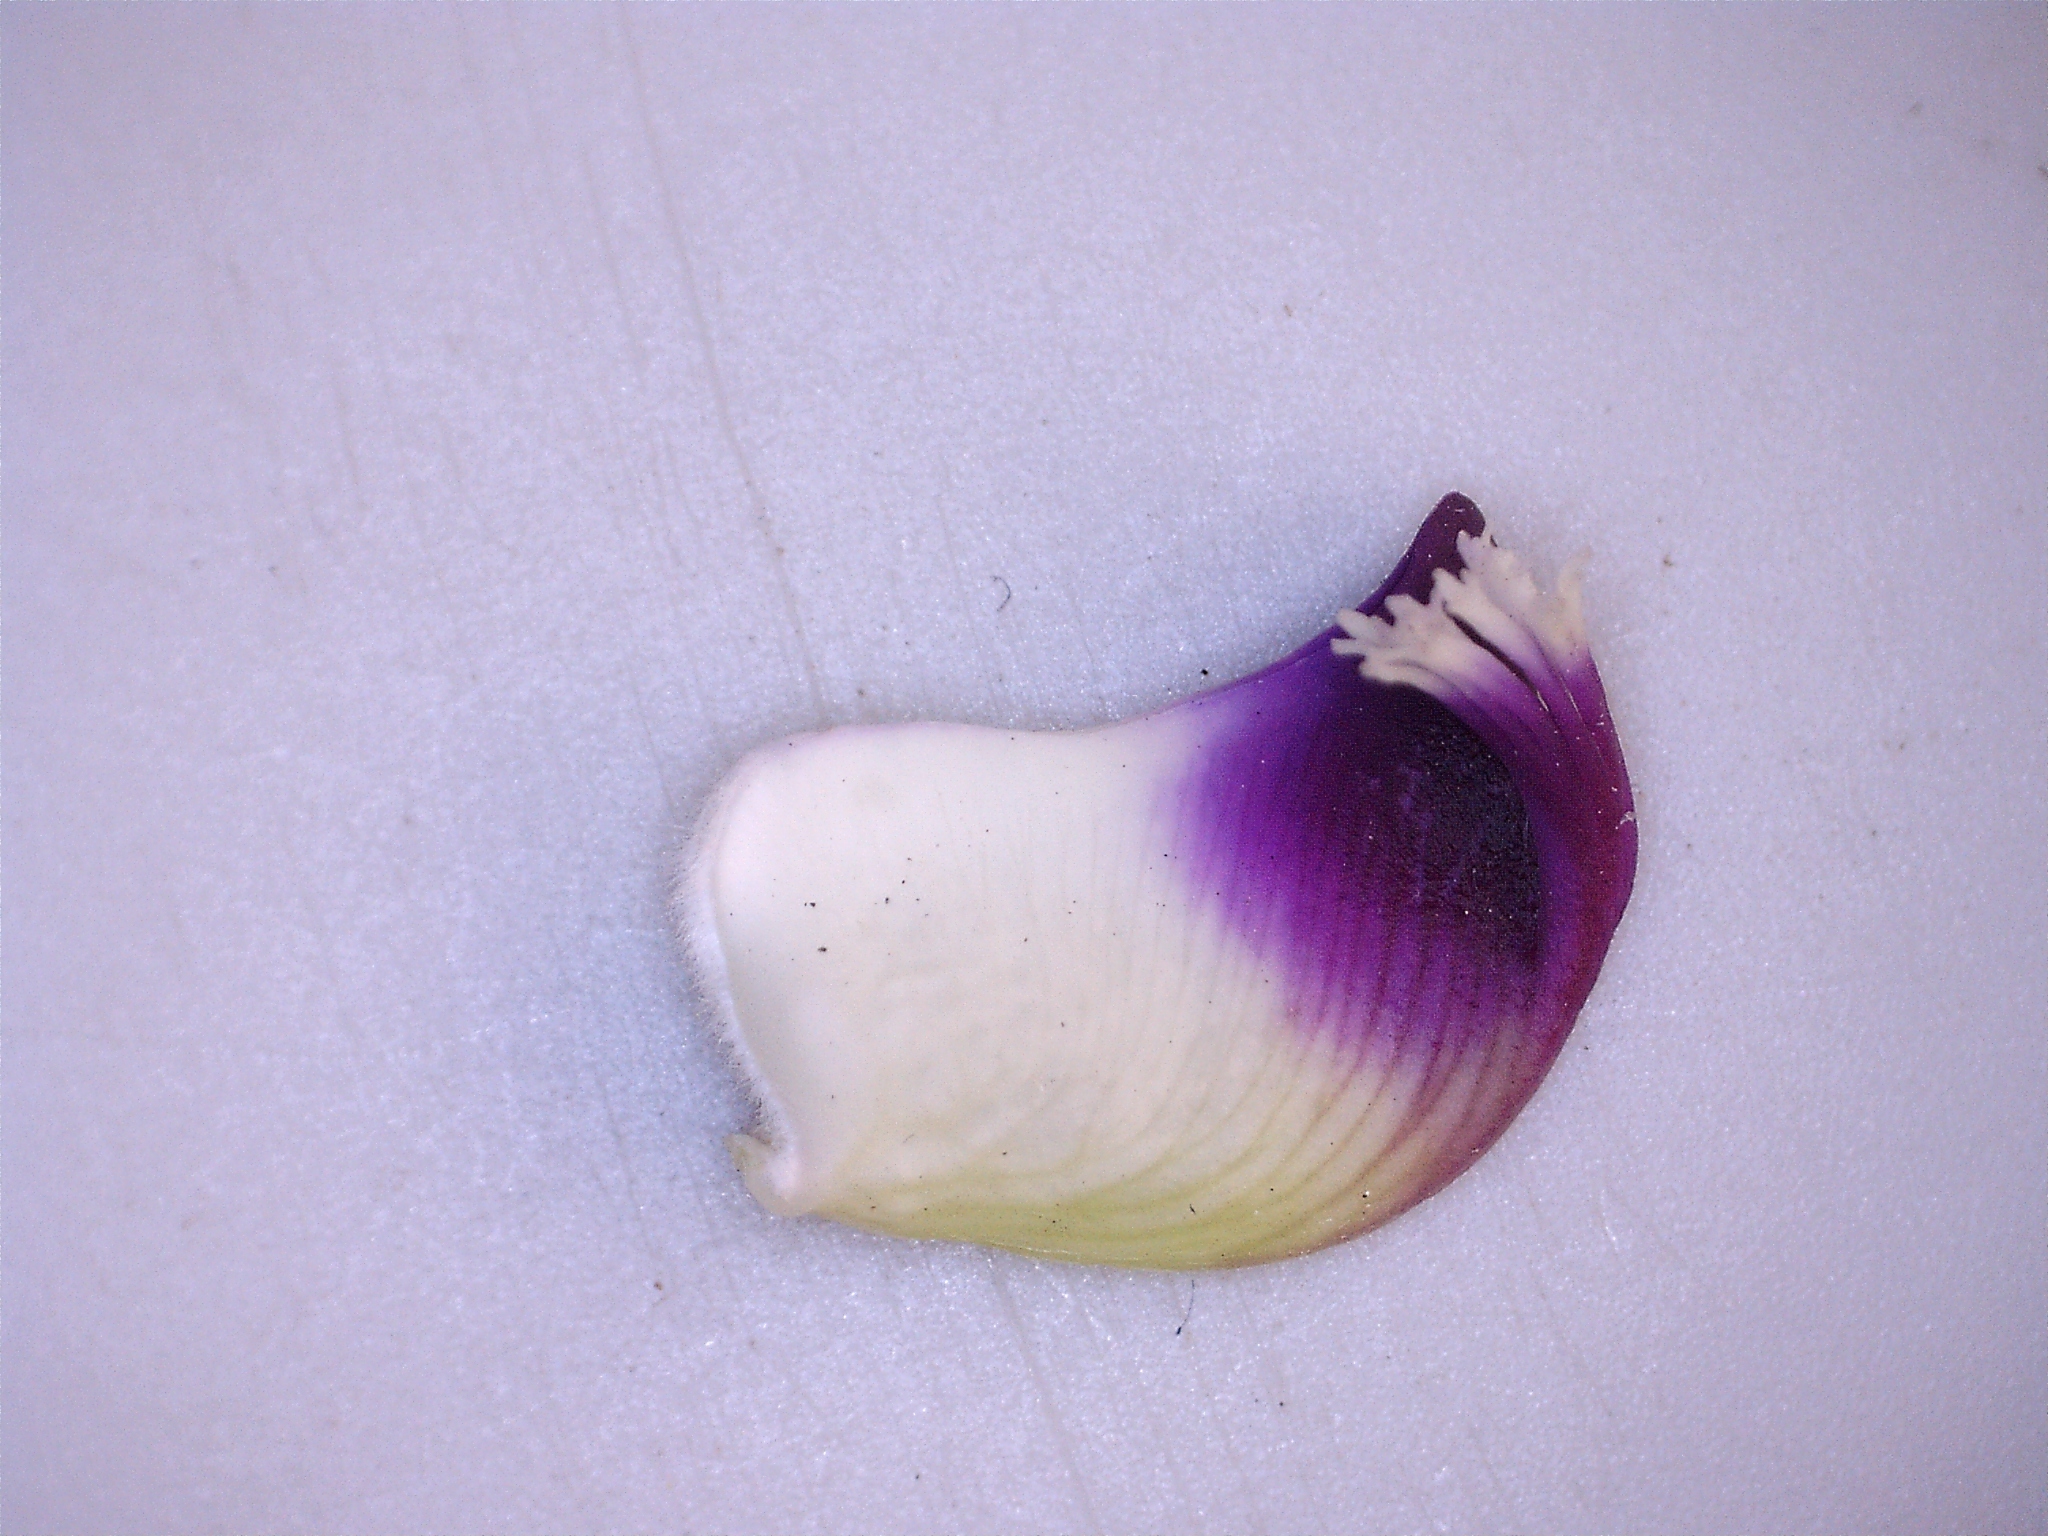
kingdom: Plantae
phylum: Tracheophyta
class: Magnoliopsida
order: Fabales
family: Polygalaceae
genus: Polygala
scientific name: Polygala myrtifolia
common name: Myrtle-leaf milkwort
